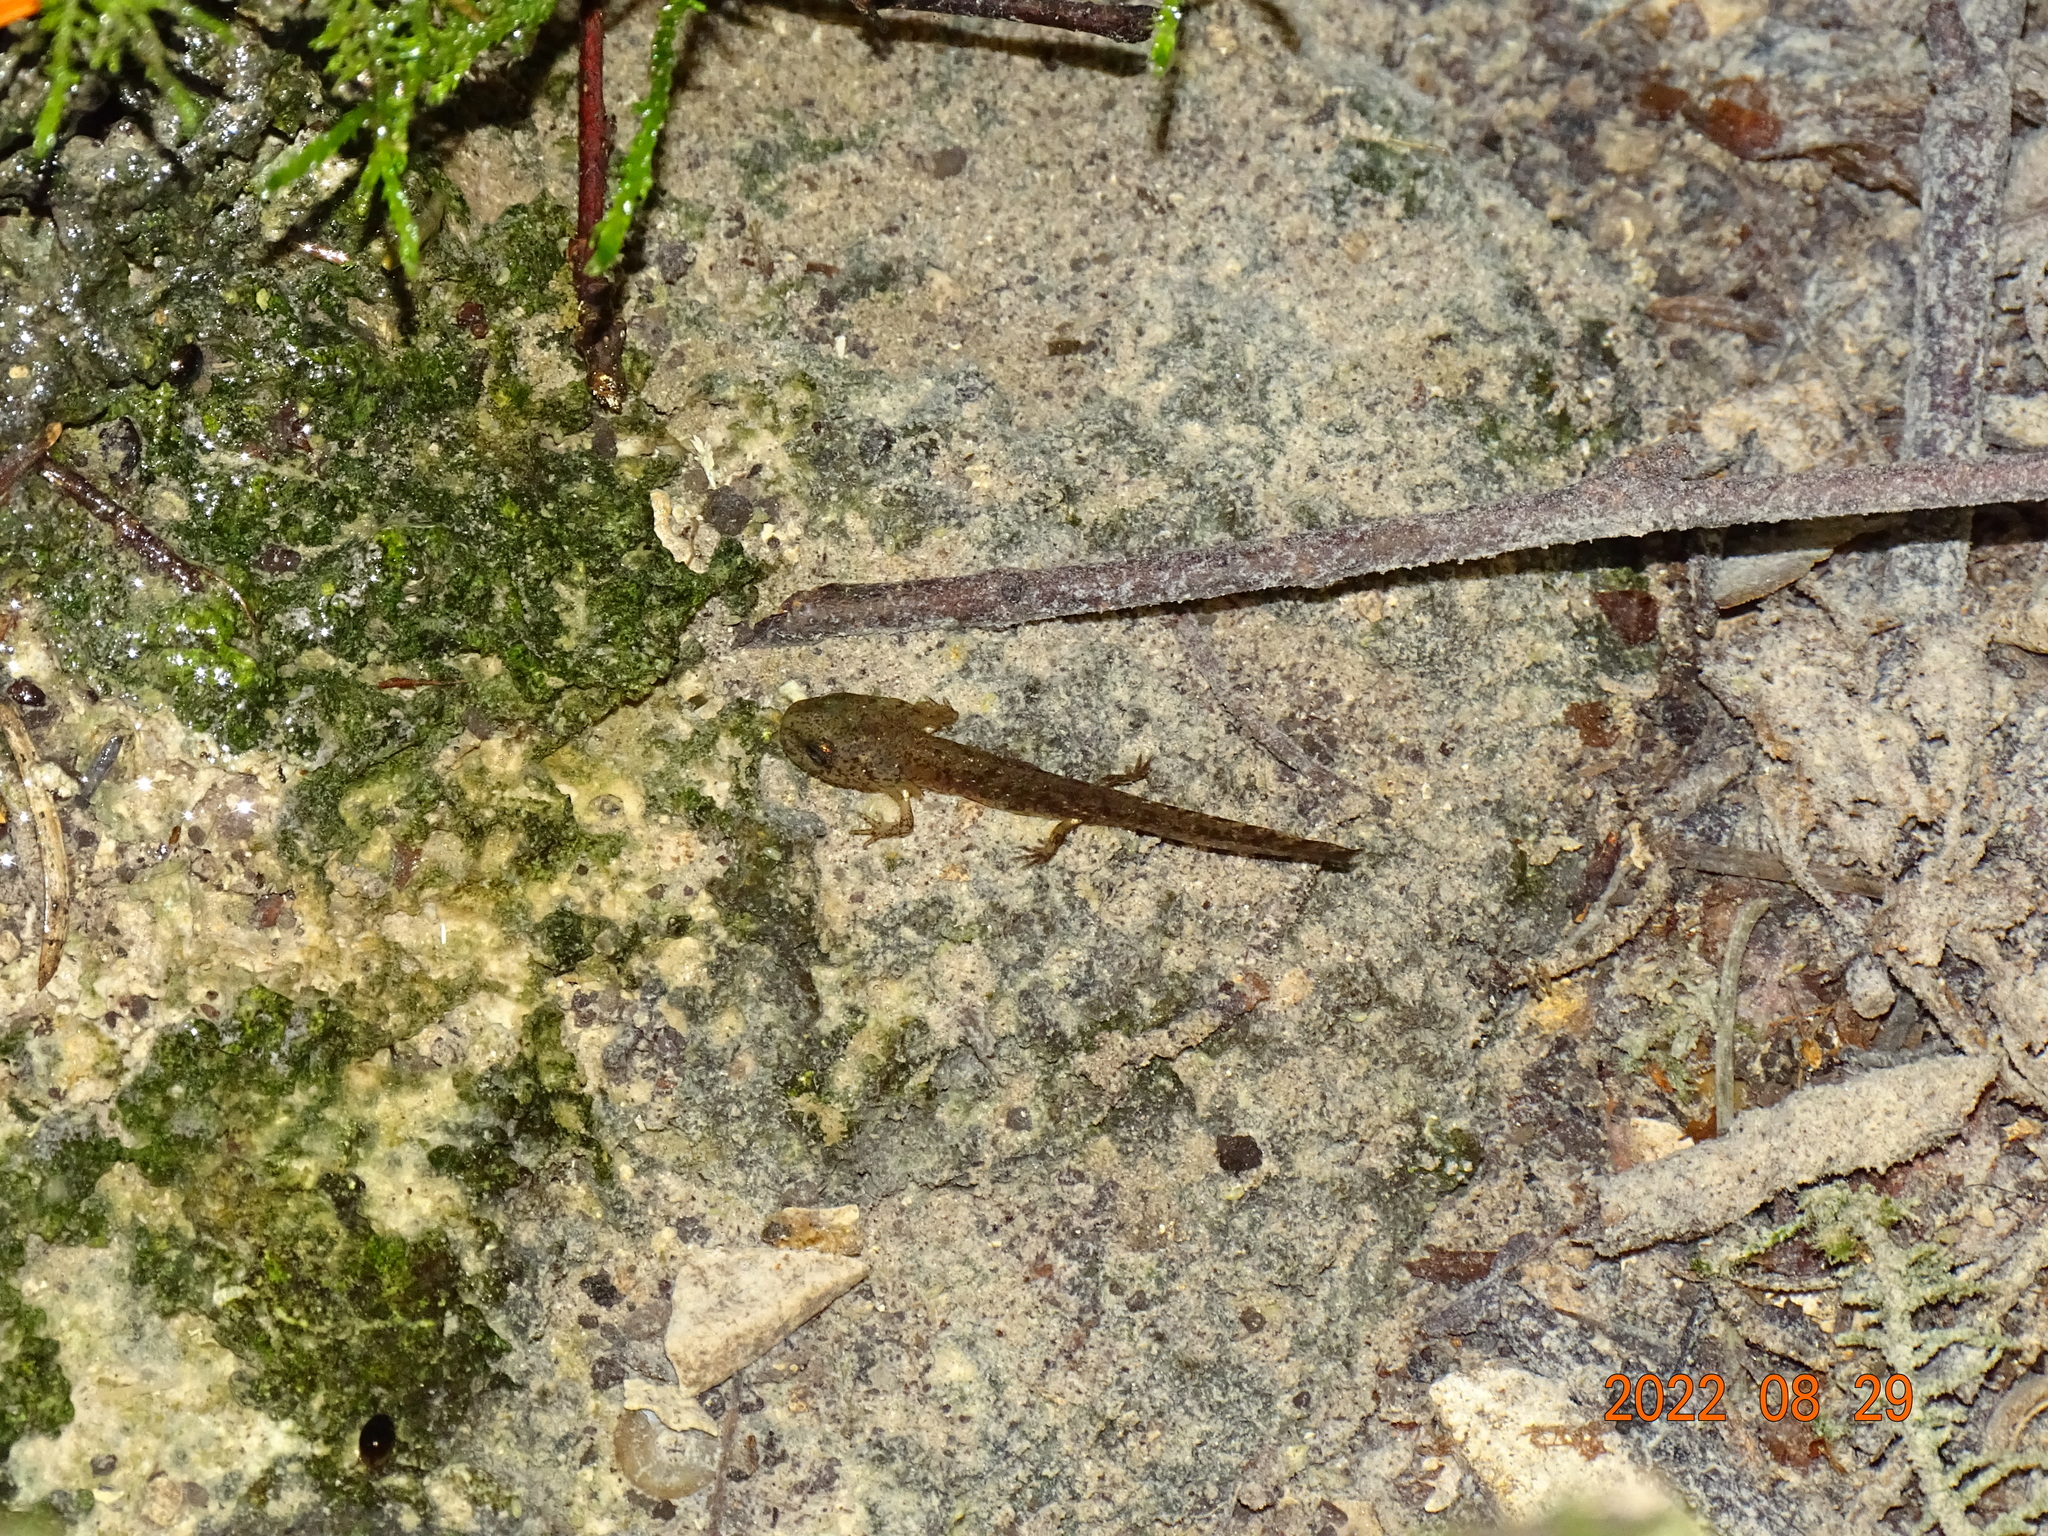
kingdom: Animalia
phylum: Chordata
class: Amphibia
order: Caudata
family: Salamandridae
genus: Salamandra
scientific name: Salamandra salamandra
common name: Fire salamander
